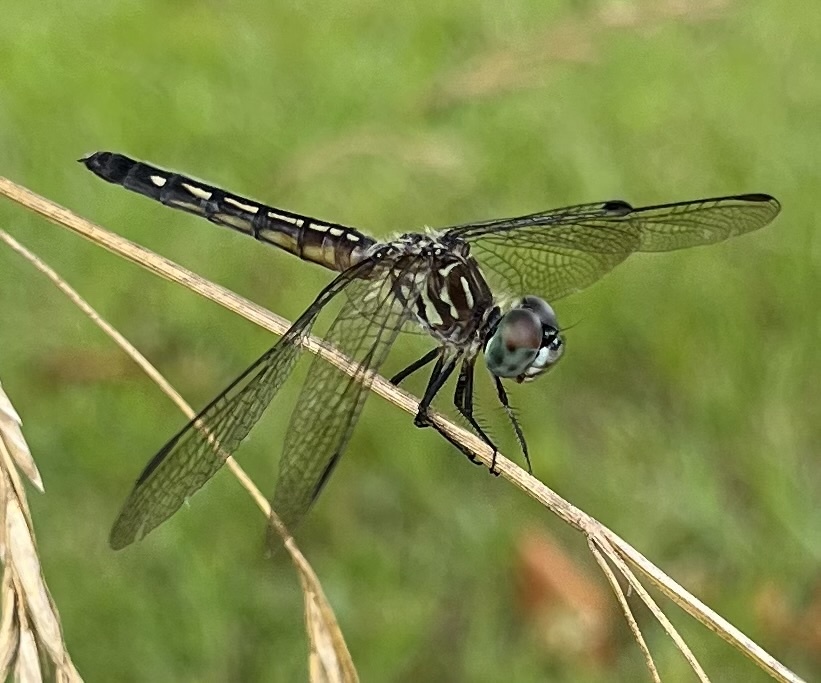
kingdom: Animalia
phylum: Arthropoda
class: Insecta
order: Odonata
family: Libellulidae
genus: Pachydiplax
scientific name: Pachydiplax longipennis
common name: Blue dasher
